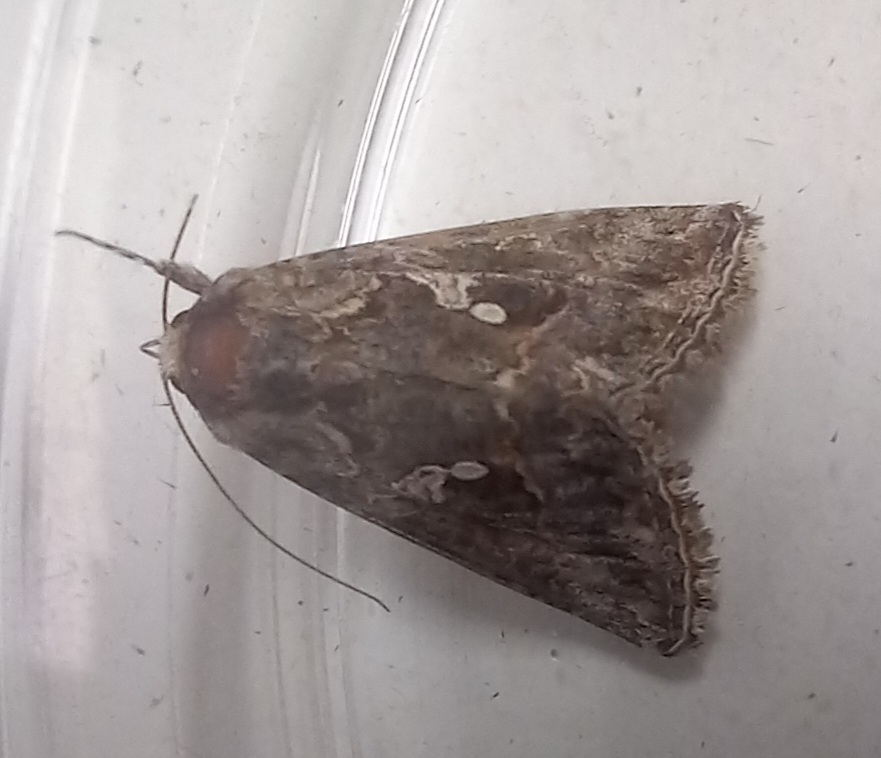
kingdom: Animalia
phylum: Arthropoda
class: Insecta
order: Lepidoptera
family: Noctuidae
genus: Trichoplusia
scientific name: Trichoplusia ni
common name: Ni moth
